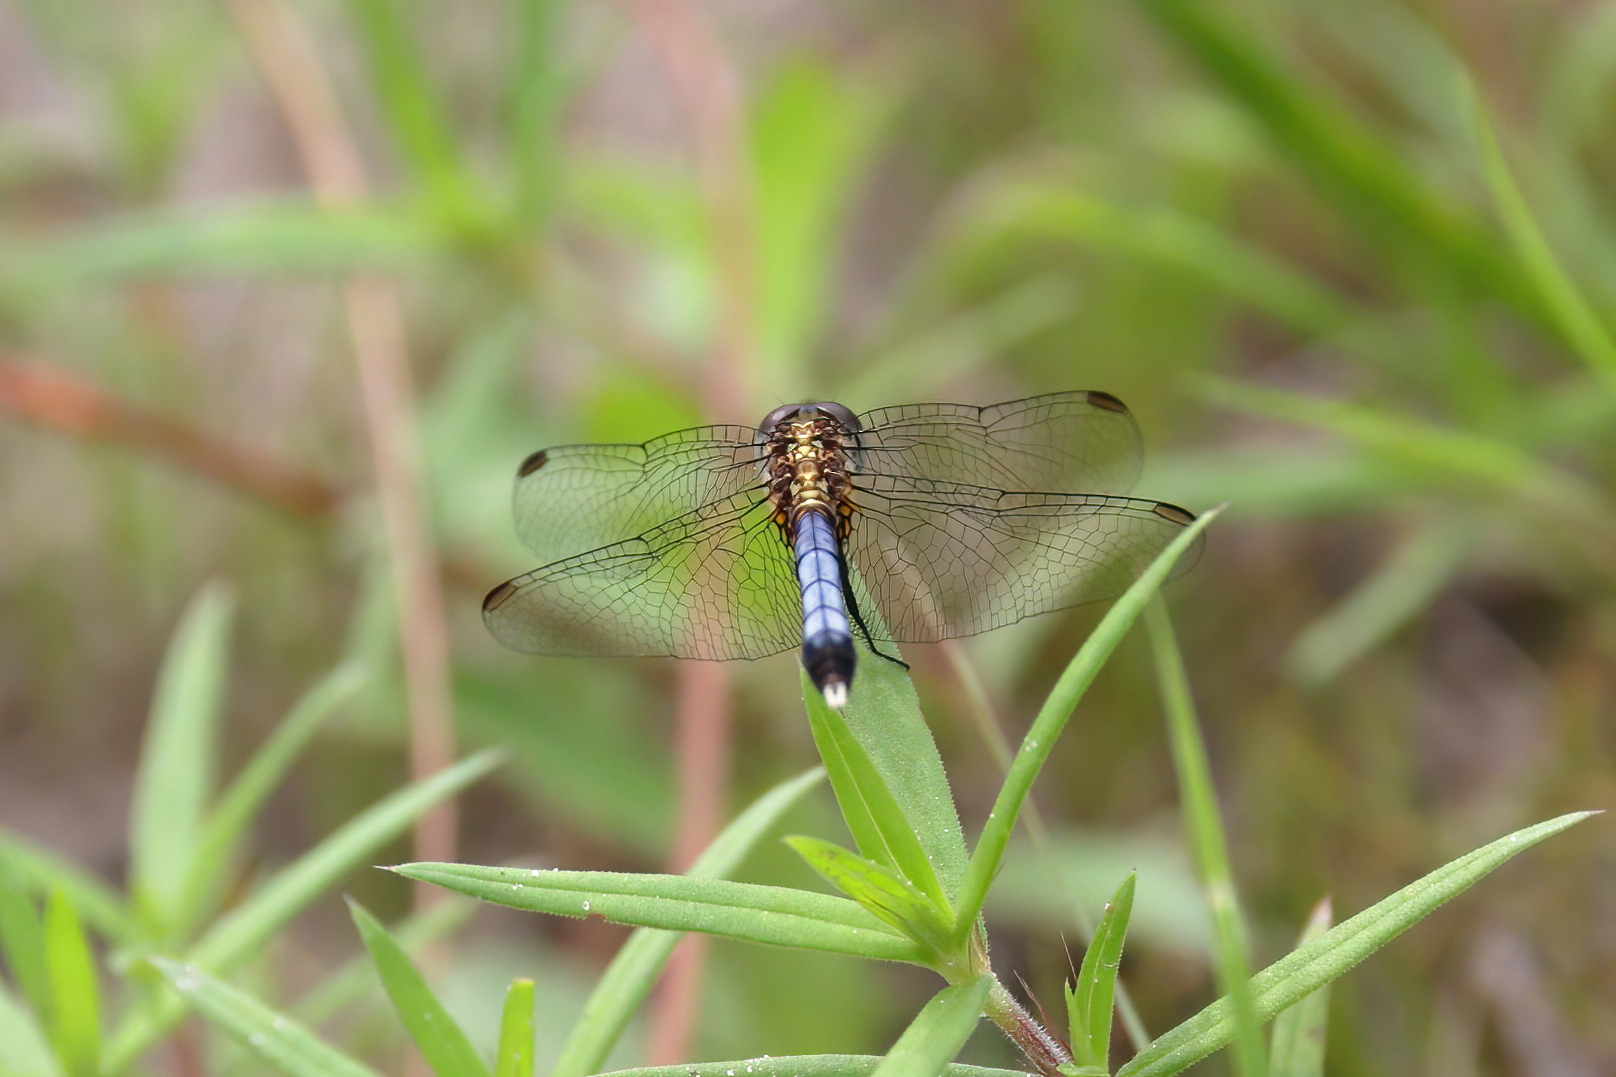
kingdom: Animalia
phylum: Arthropoda
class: Insecta
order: Odonata
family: Libellulidae
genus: Erythrodiplax
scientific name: Erythrodiplax minuscula
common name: Little blue dragonlet
